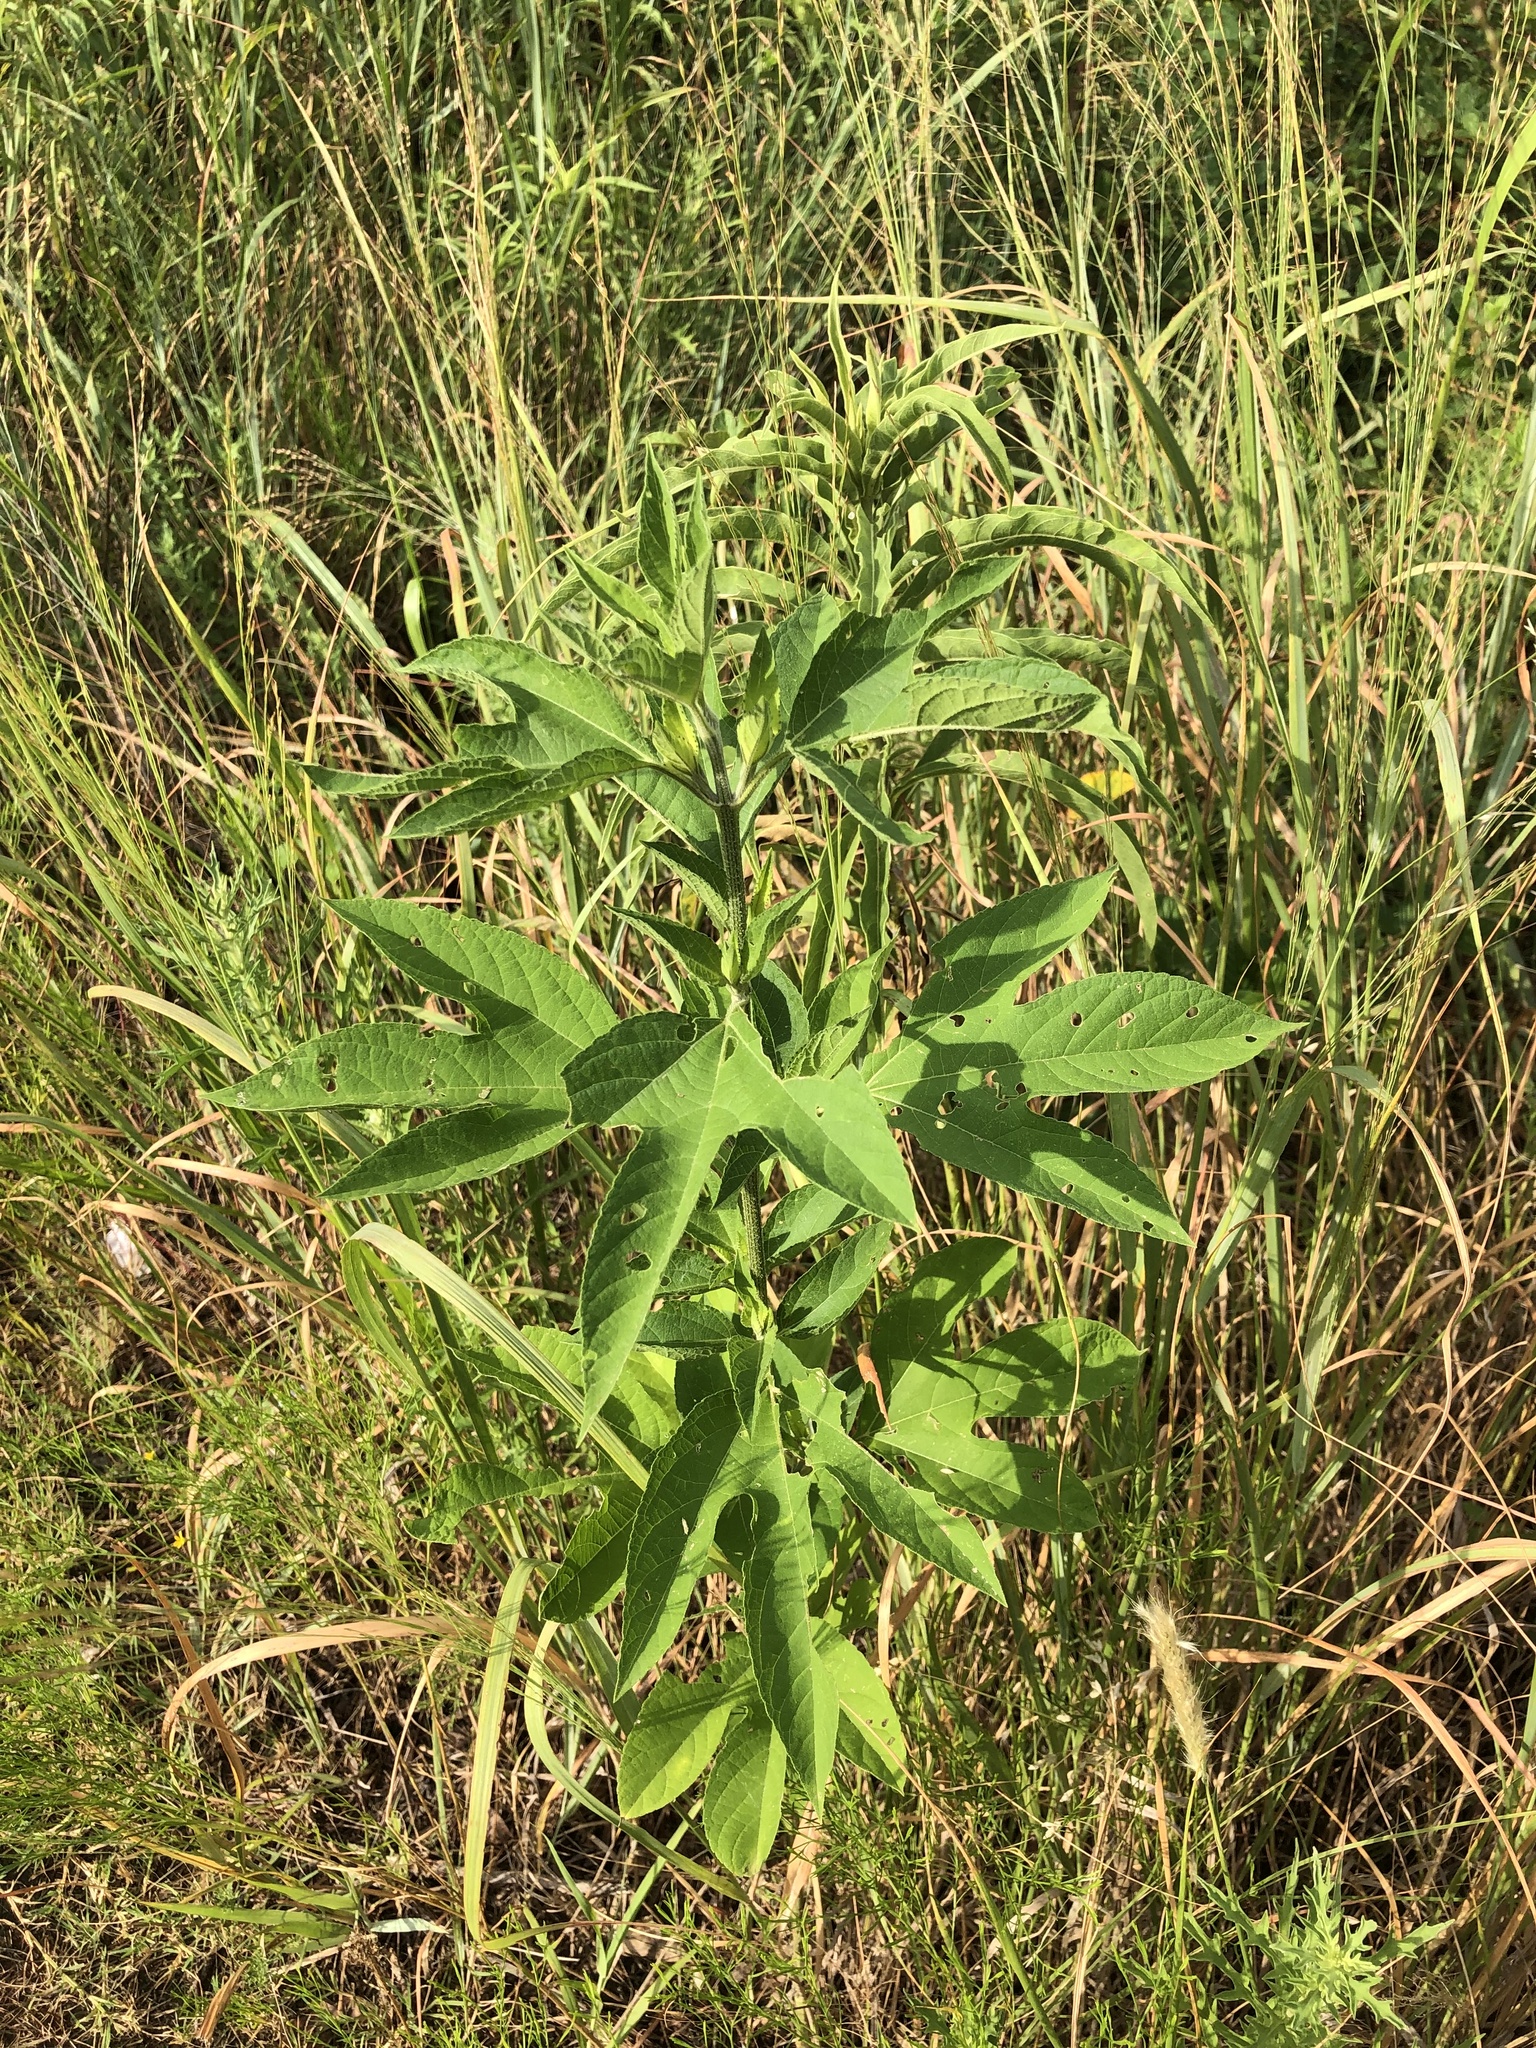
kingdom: Plantae
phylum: Tracheophyta
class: Magnoliopsida
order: Asterales
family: Asteraceae
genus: Ambrosia
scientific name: Ambrosia trifida
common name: Giant ragweed
